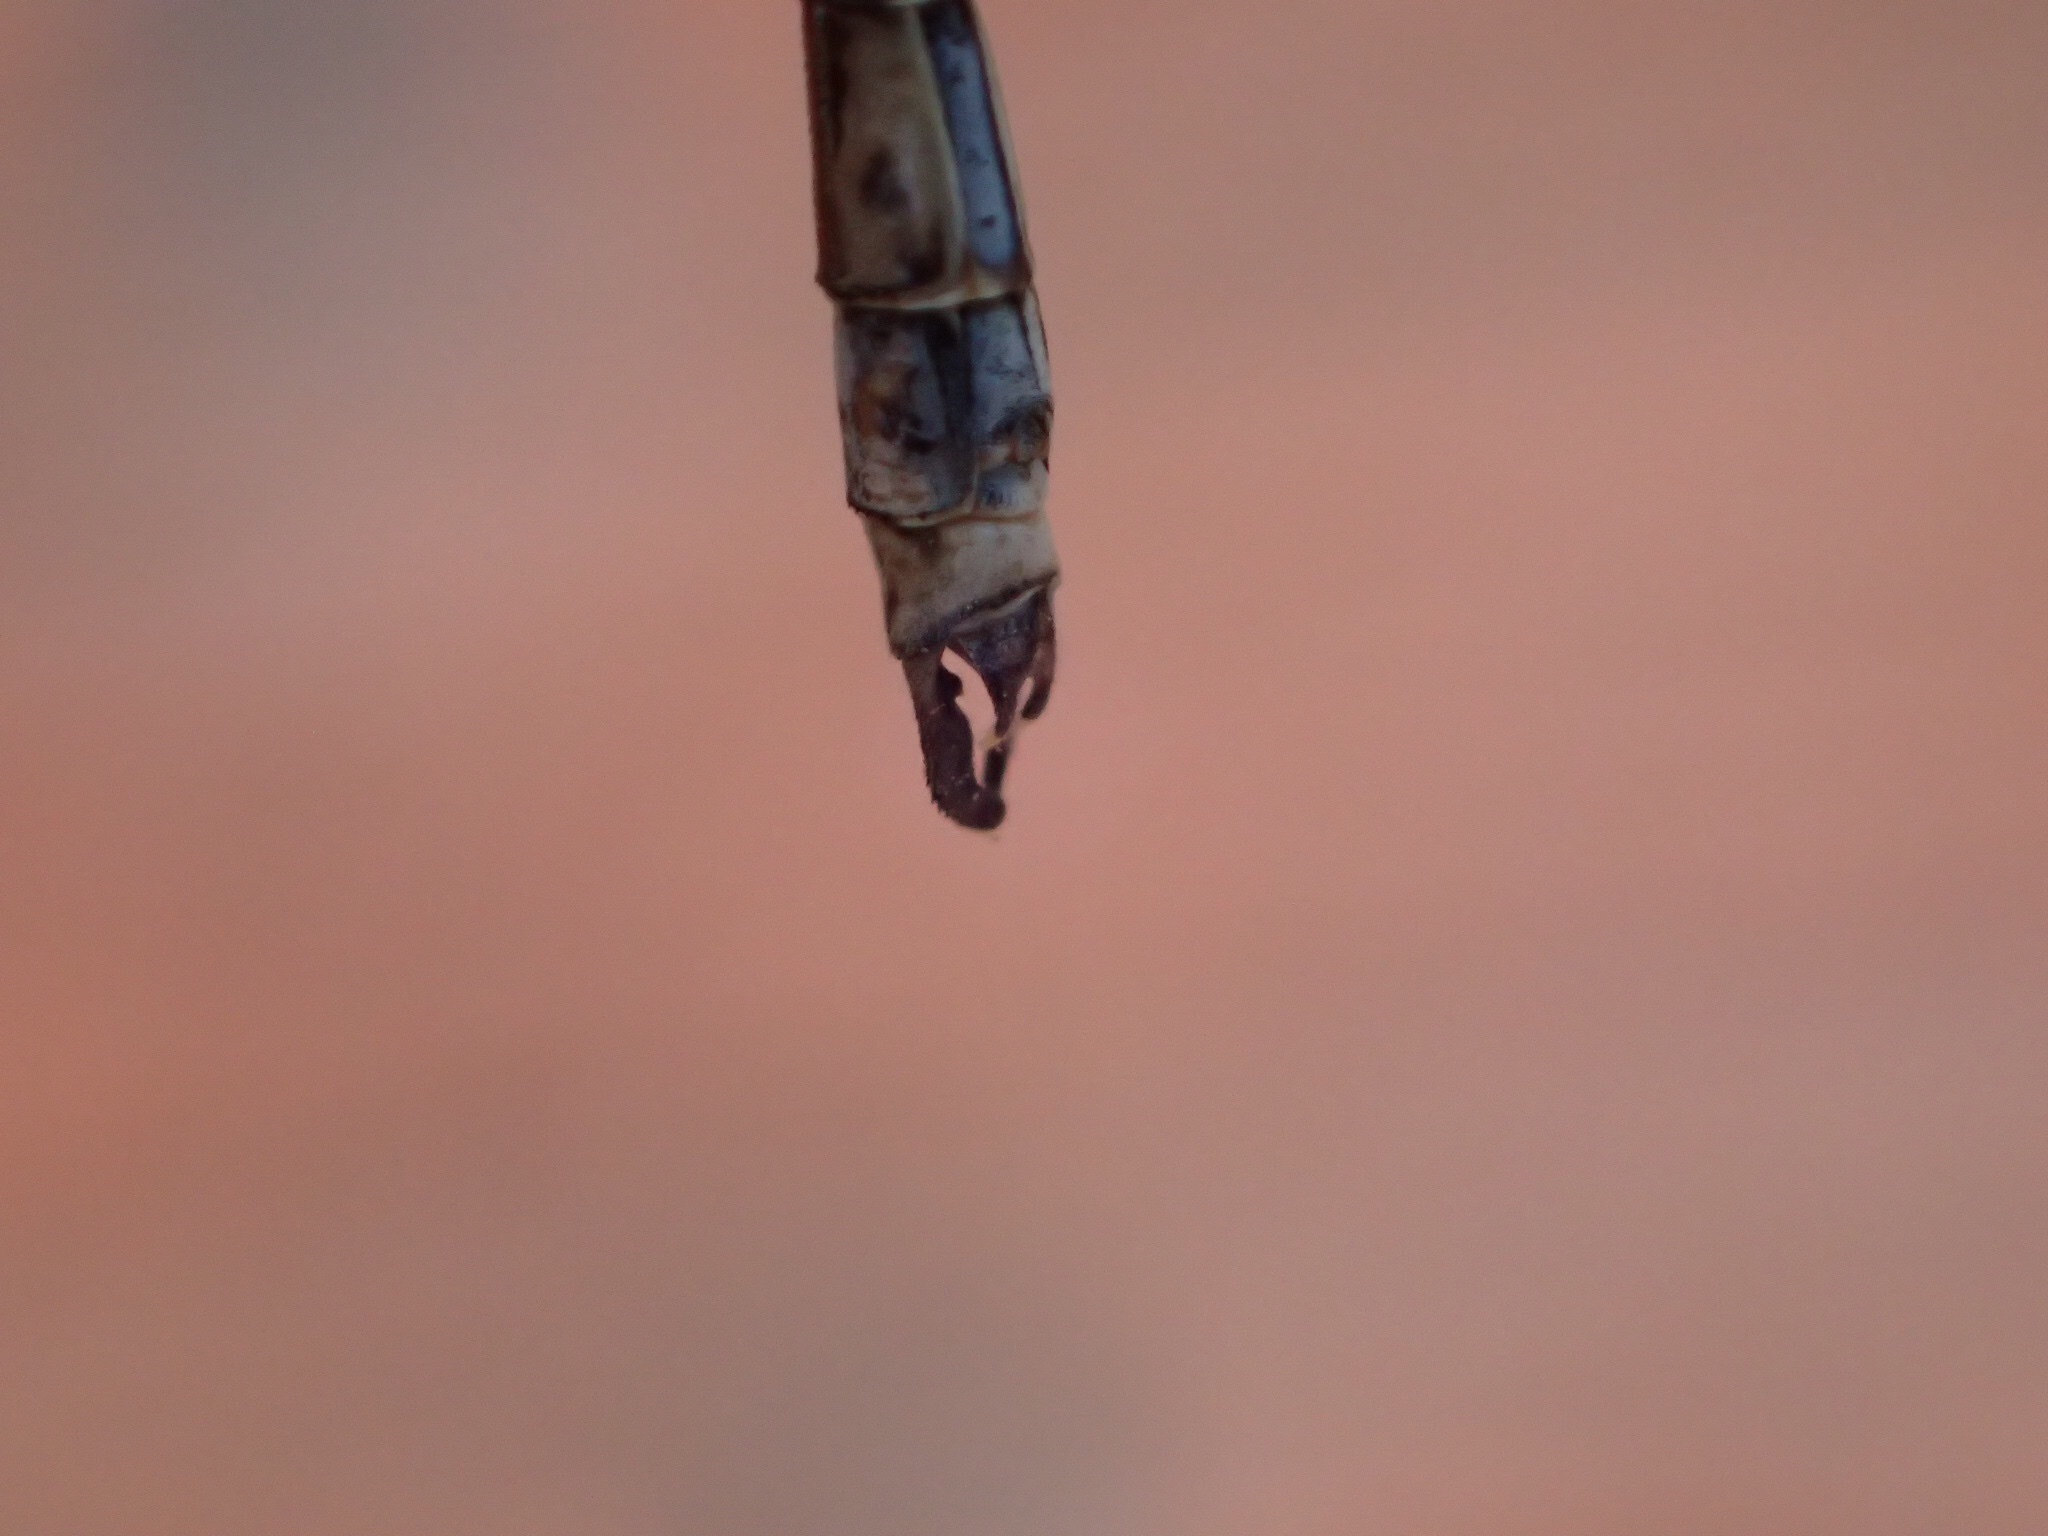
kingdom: Animalia
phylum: Arthropoda
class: Insecta
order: Odonata
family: Lestidae
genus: Lestes
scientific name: Lestes congener
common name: Spotted spreadwing
